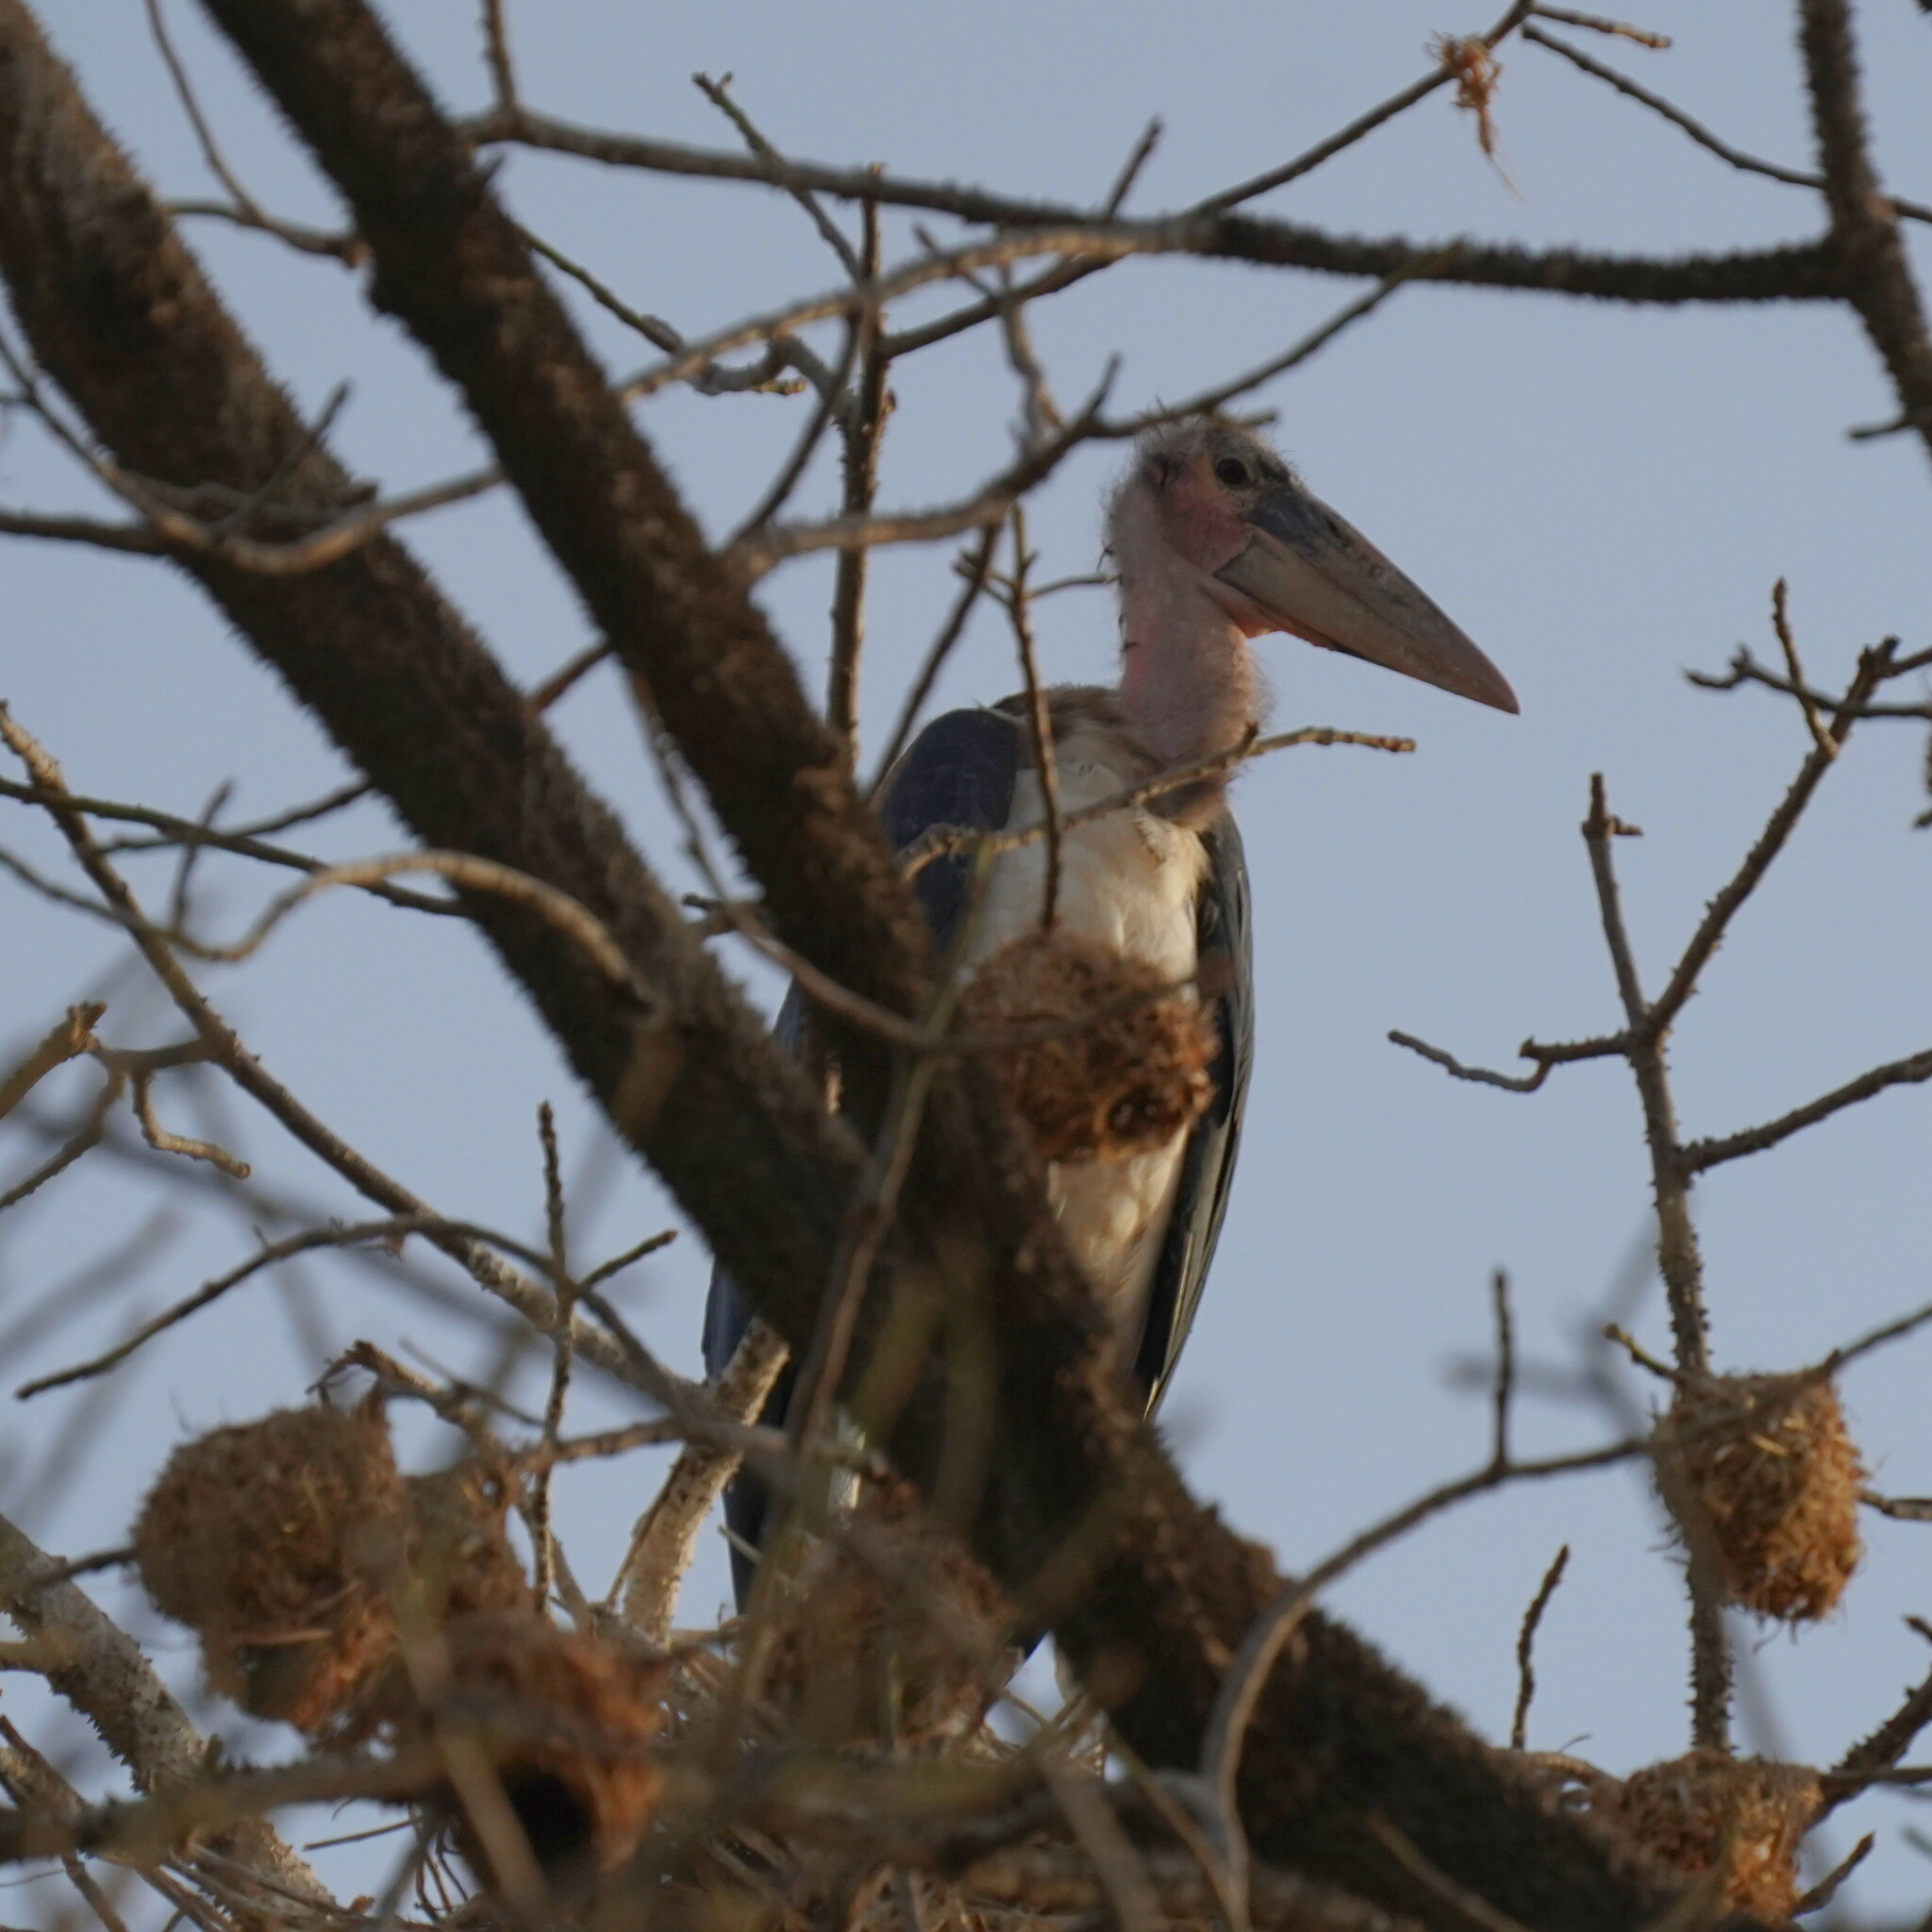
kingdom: Animalia
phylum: Chordata
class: Aves
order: Ciconiiformes
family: Ciconiidae
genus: Leptoptilos
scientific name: Leptoptilos crumenifer
